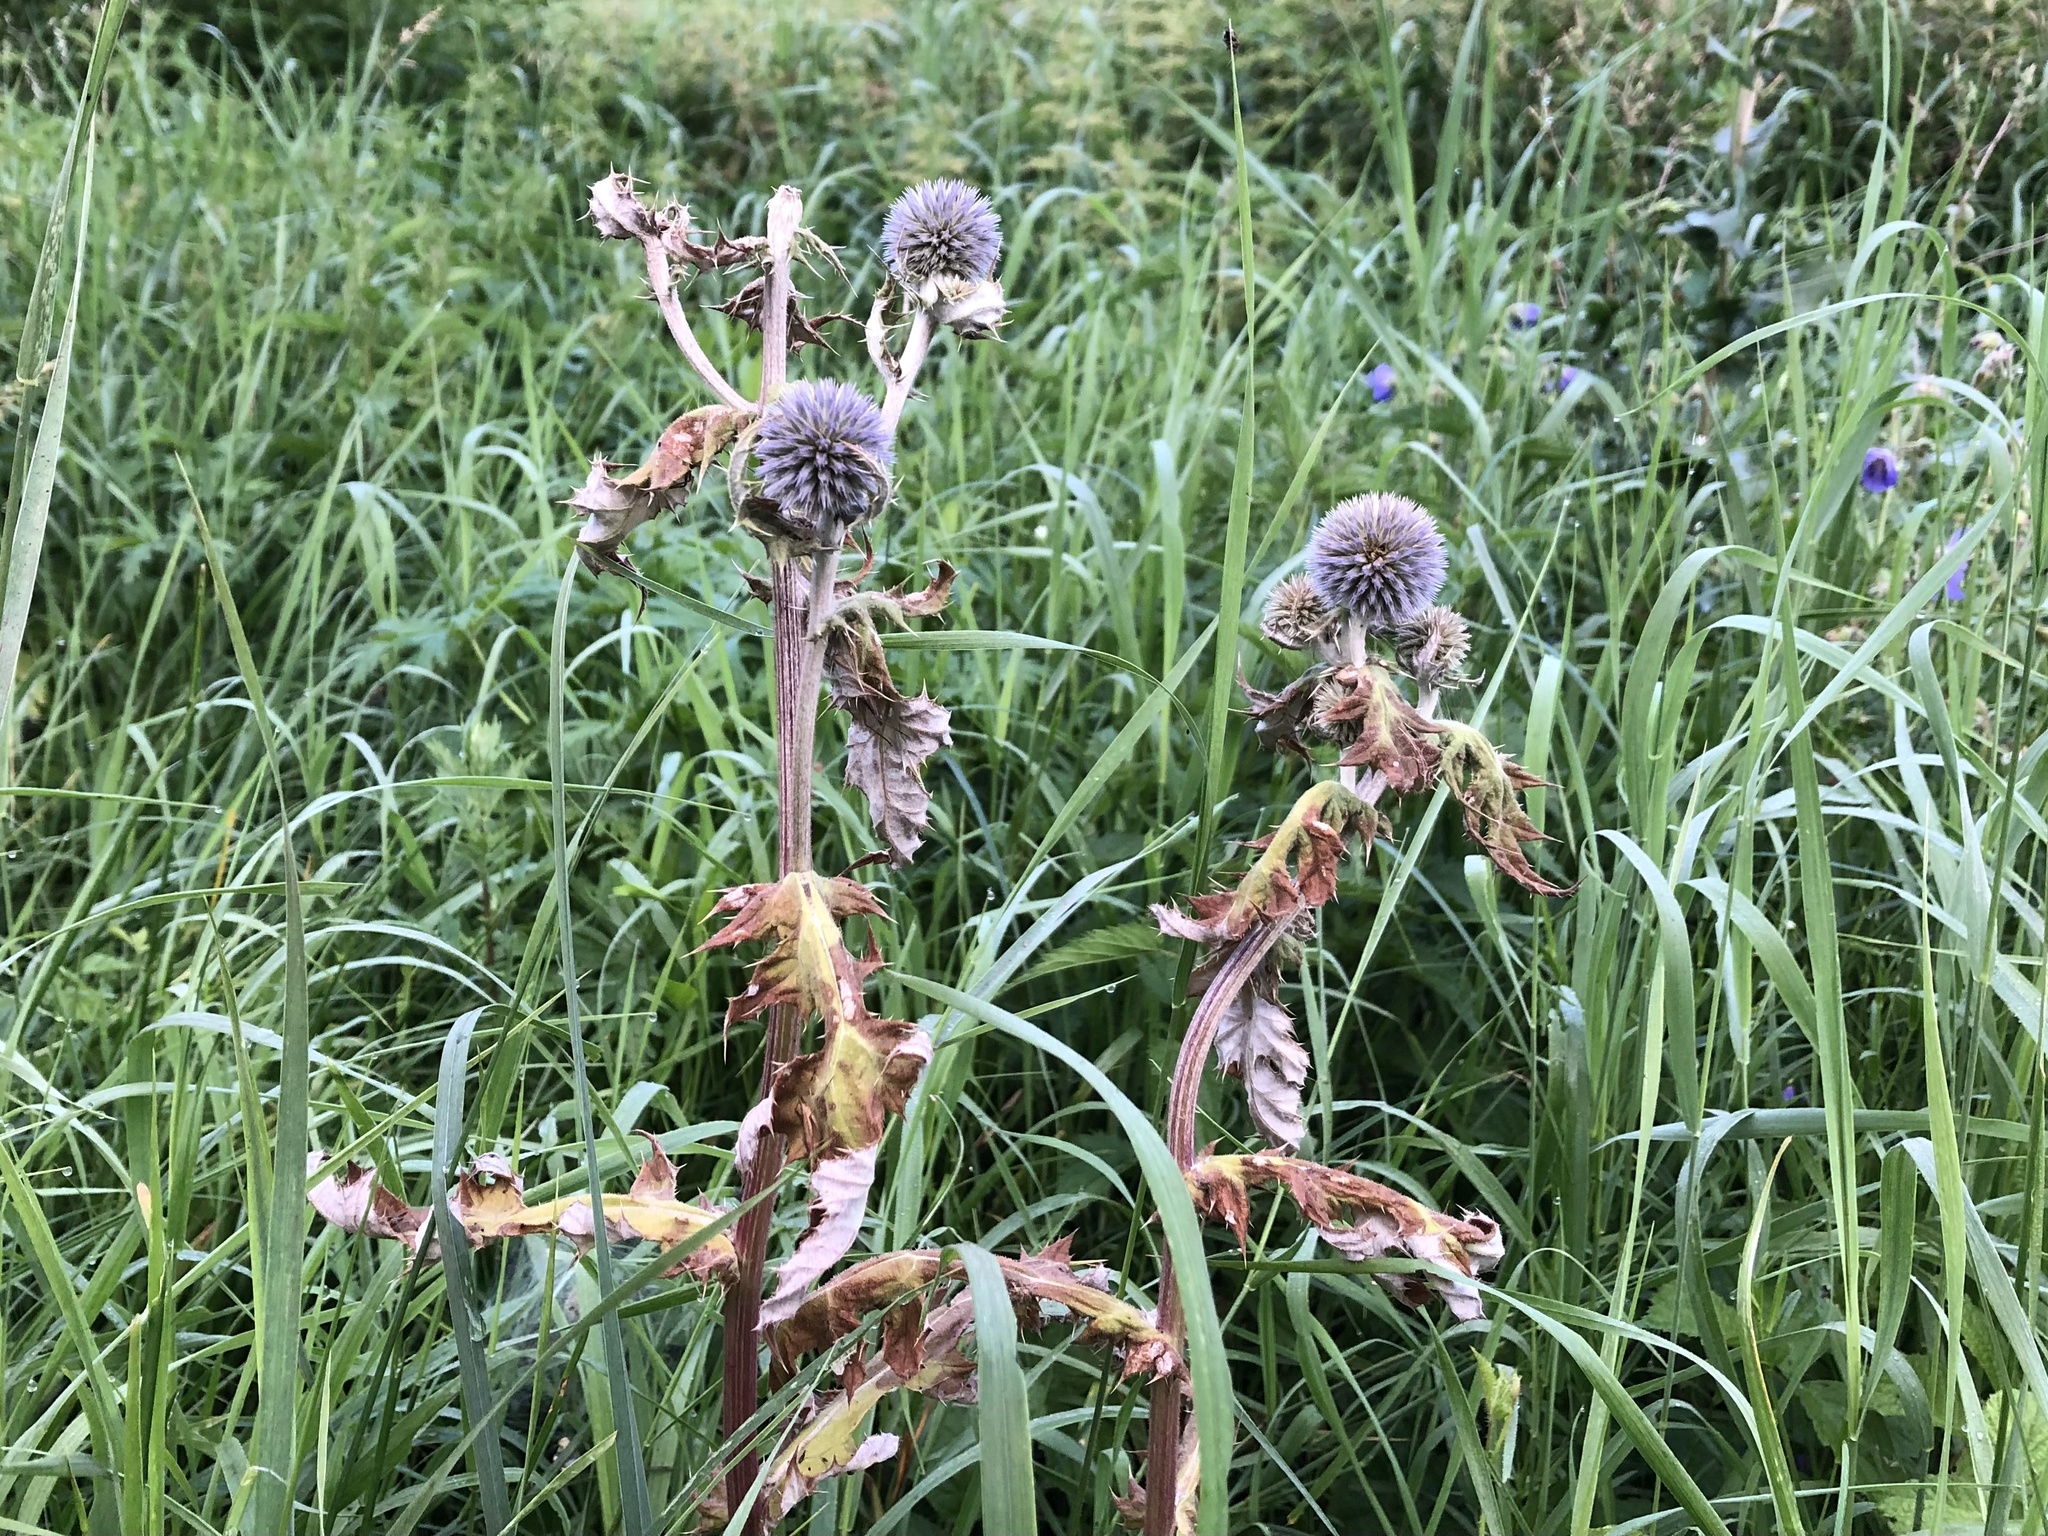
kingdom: Plantae
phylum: Tracheophyta
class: Magnoliopsida
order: Asterales
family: Asteraceae
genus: Echinops
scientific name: Echinops sphaerocephalus
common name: Glandular globe-thistle
